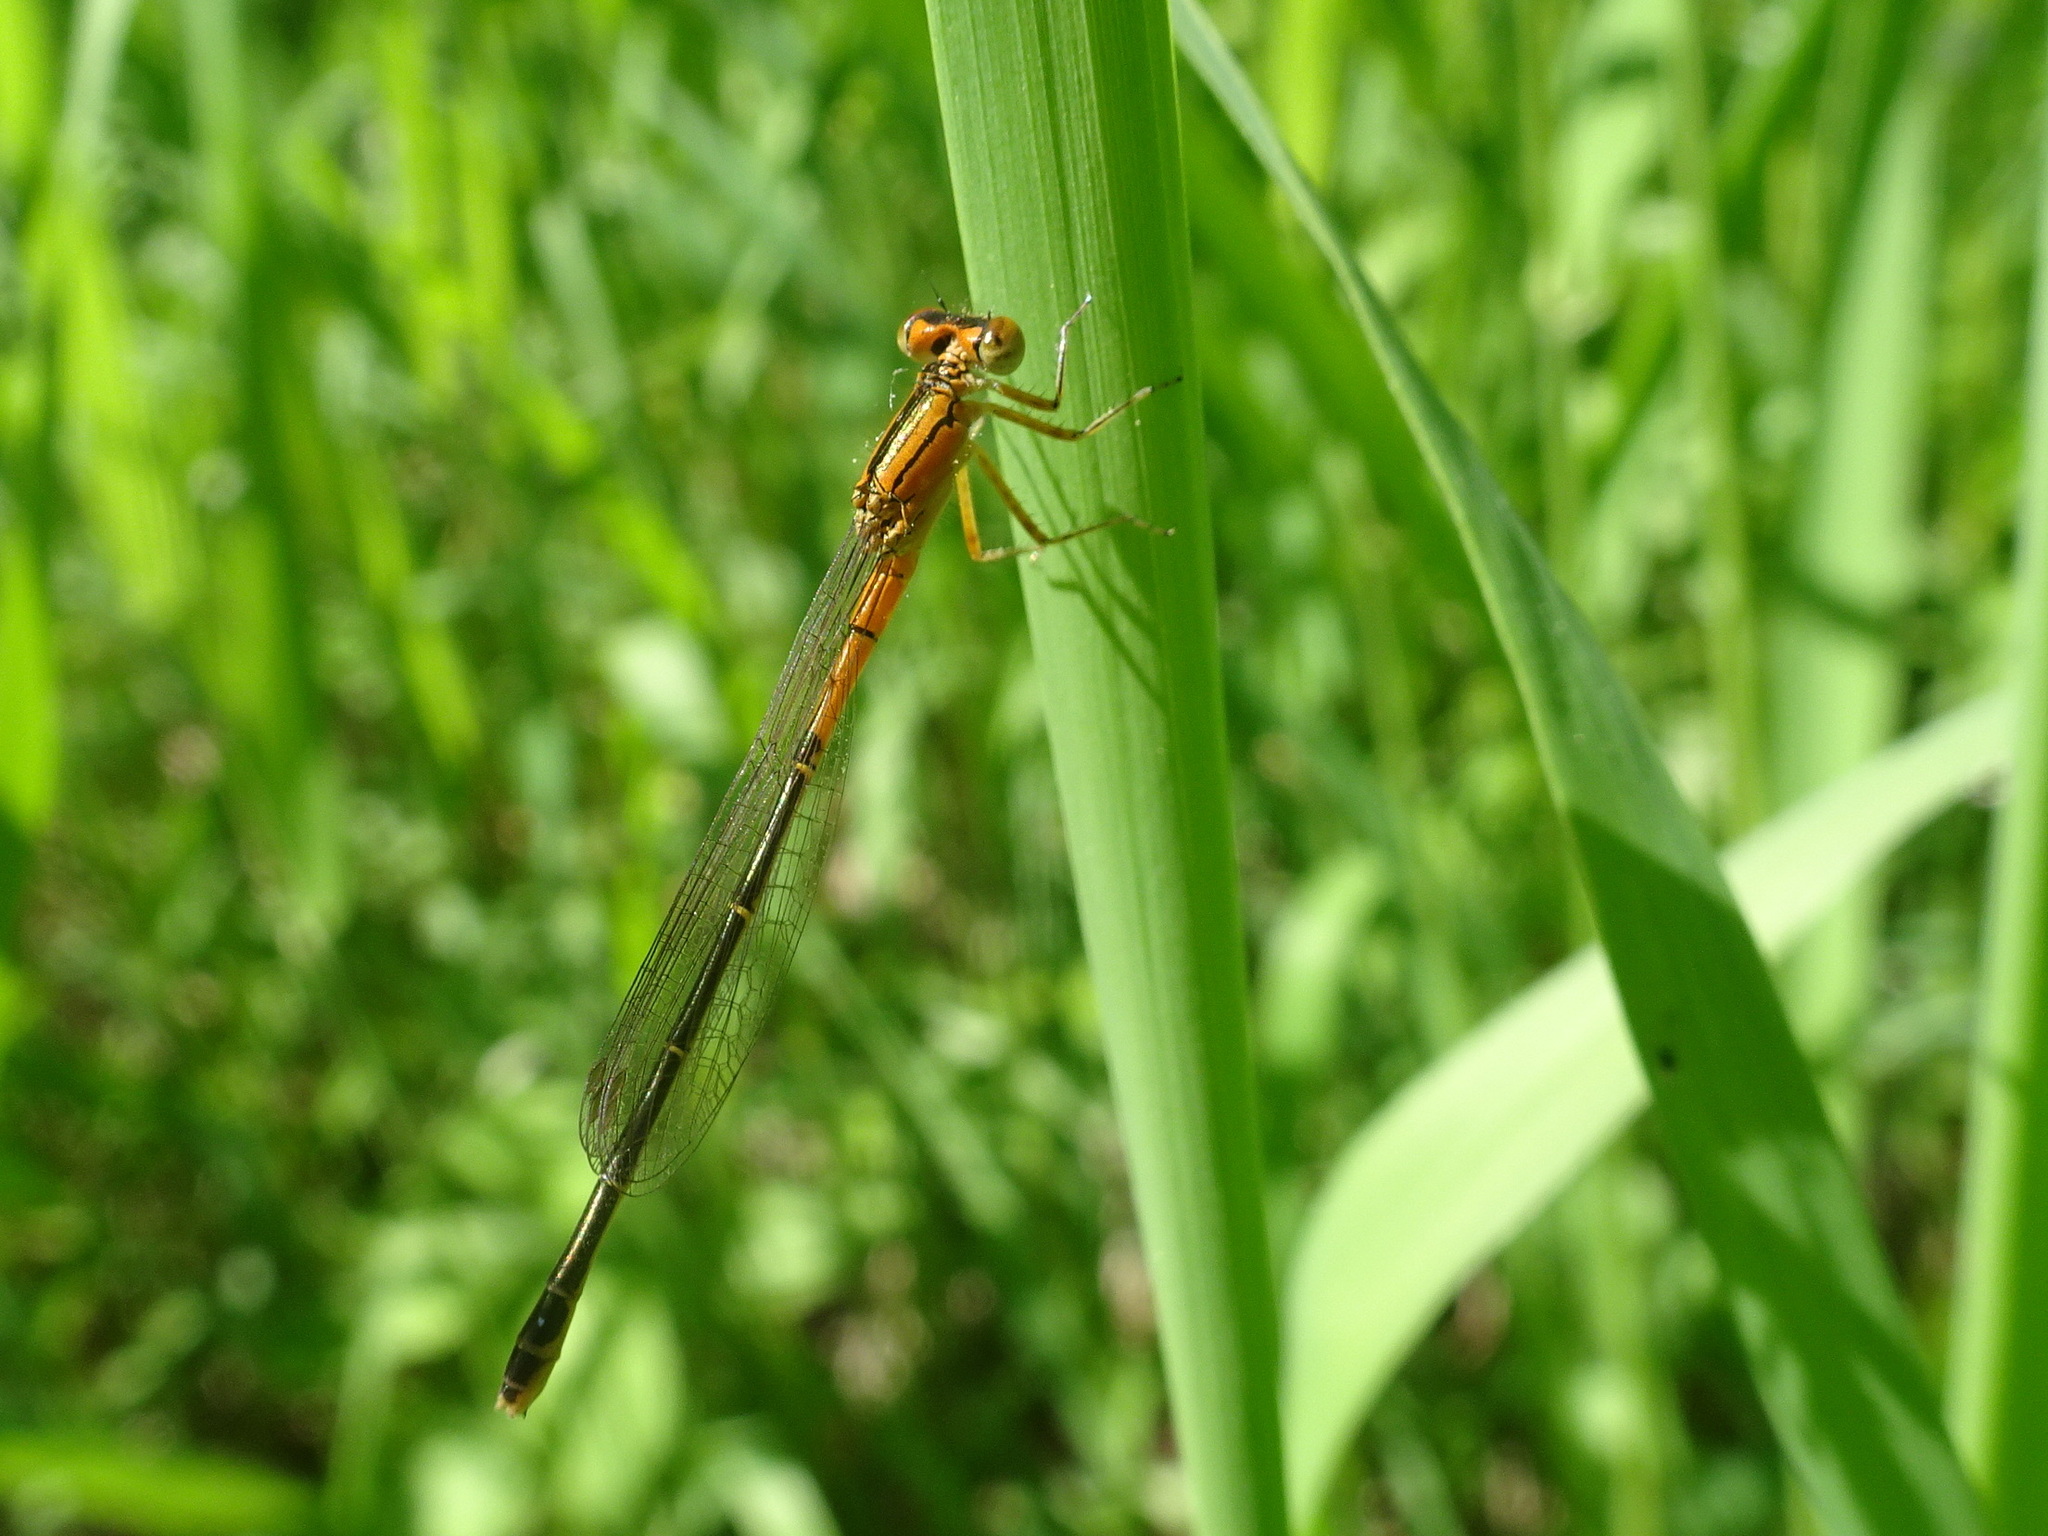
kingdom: Animalia
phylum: Arthropoda
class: Insecta
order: Odonata
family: Coenagrionidae
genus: Ischnura
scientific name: Ischnura verticalis
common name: Eastern forktail
